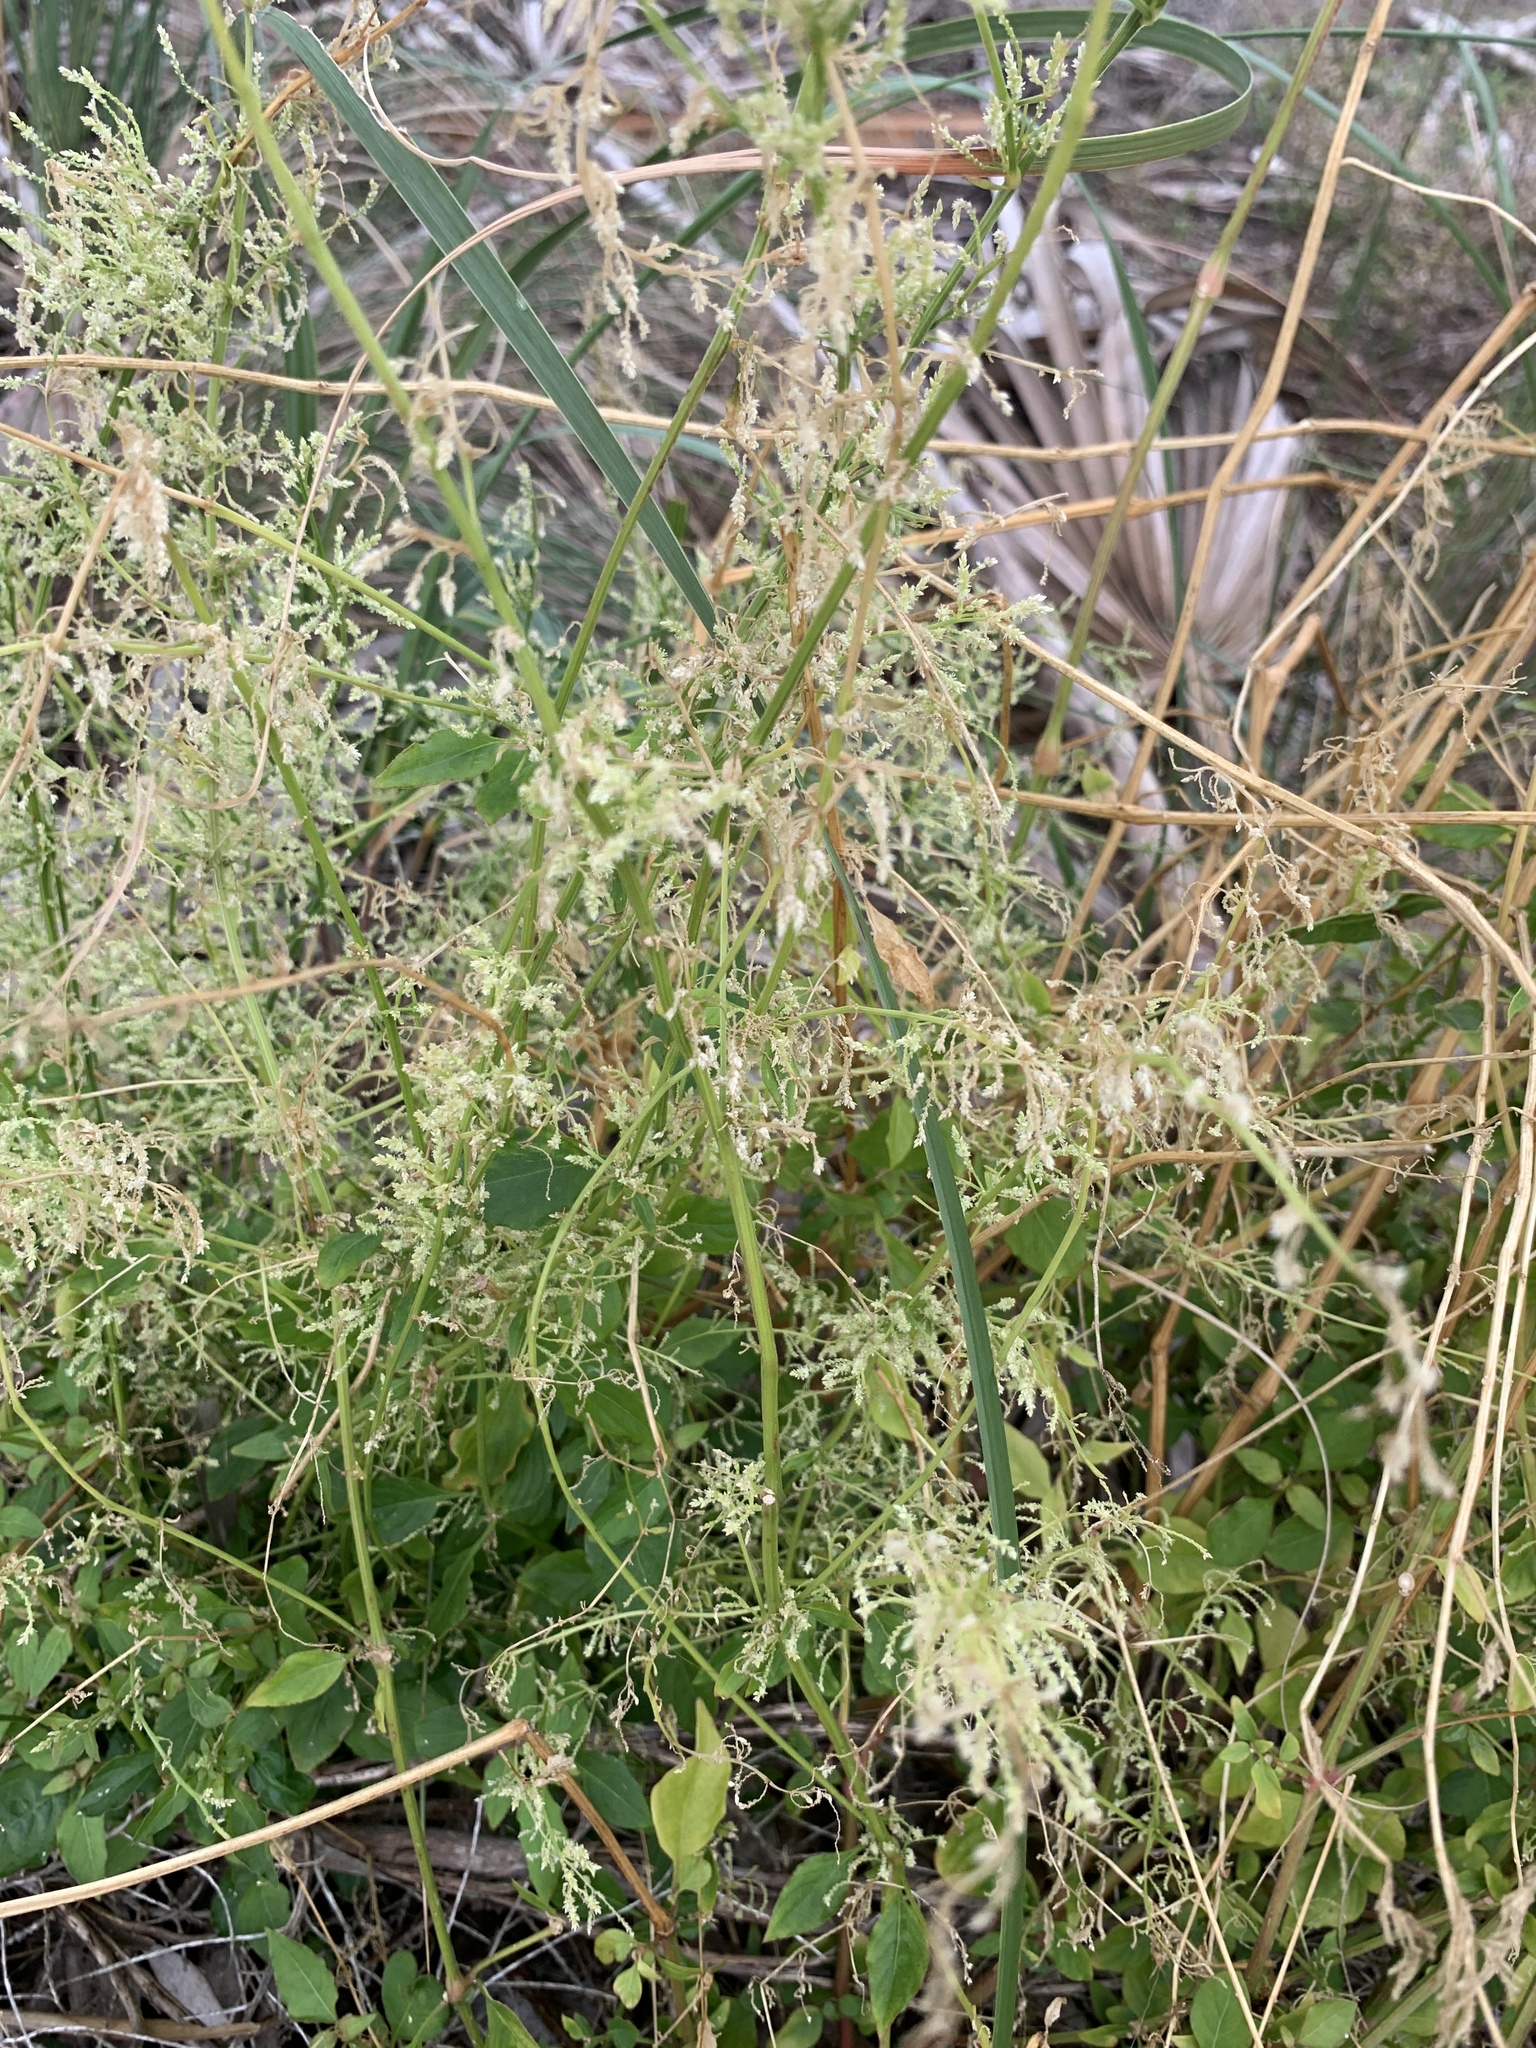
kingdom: Plantae
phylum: Tracheophyta
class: Magnoliopsida
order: Caryophyllales
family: Amaranthaceae
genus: Iresine
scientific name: Iresine diffusa
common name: Juba's-bush
